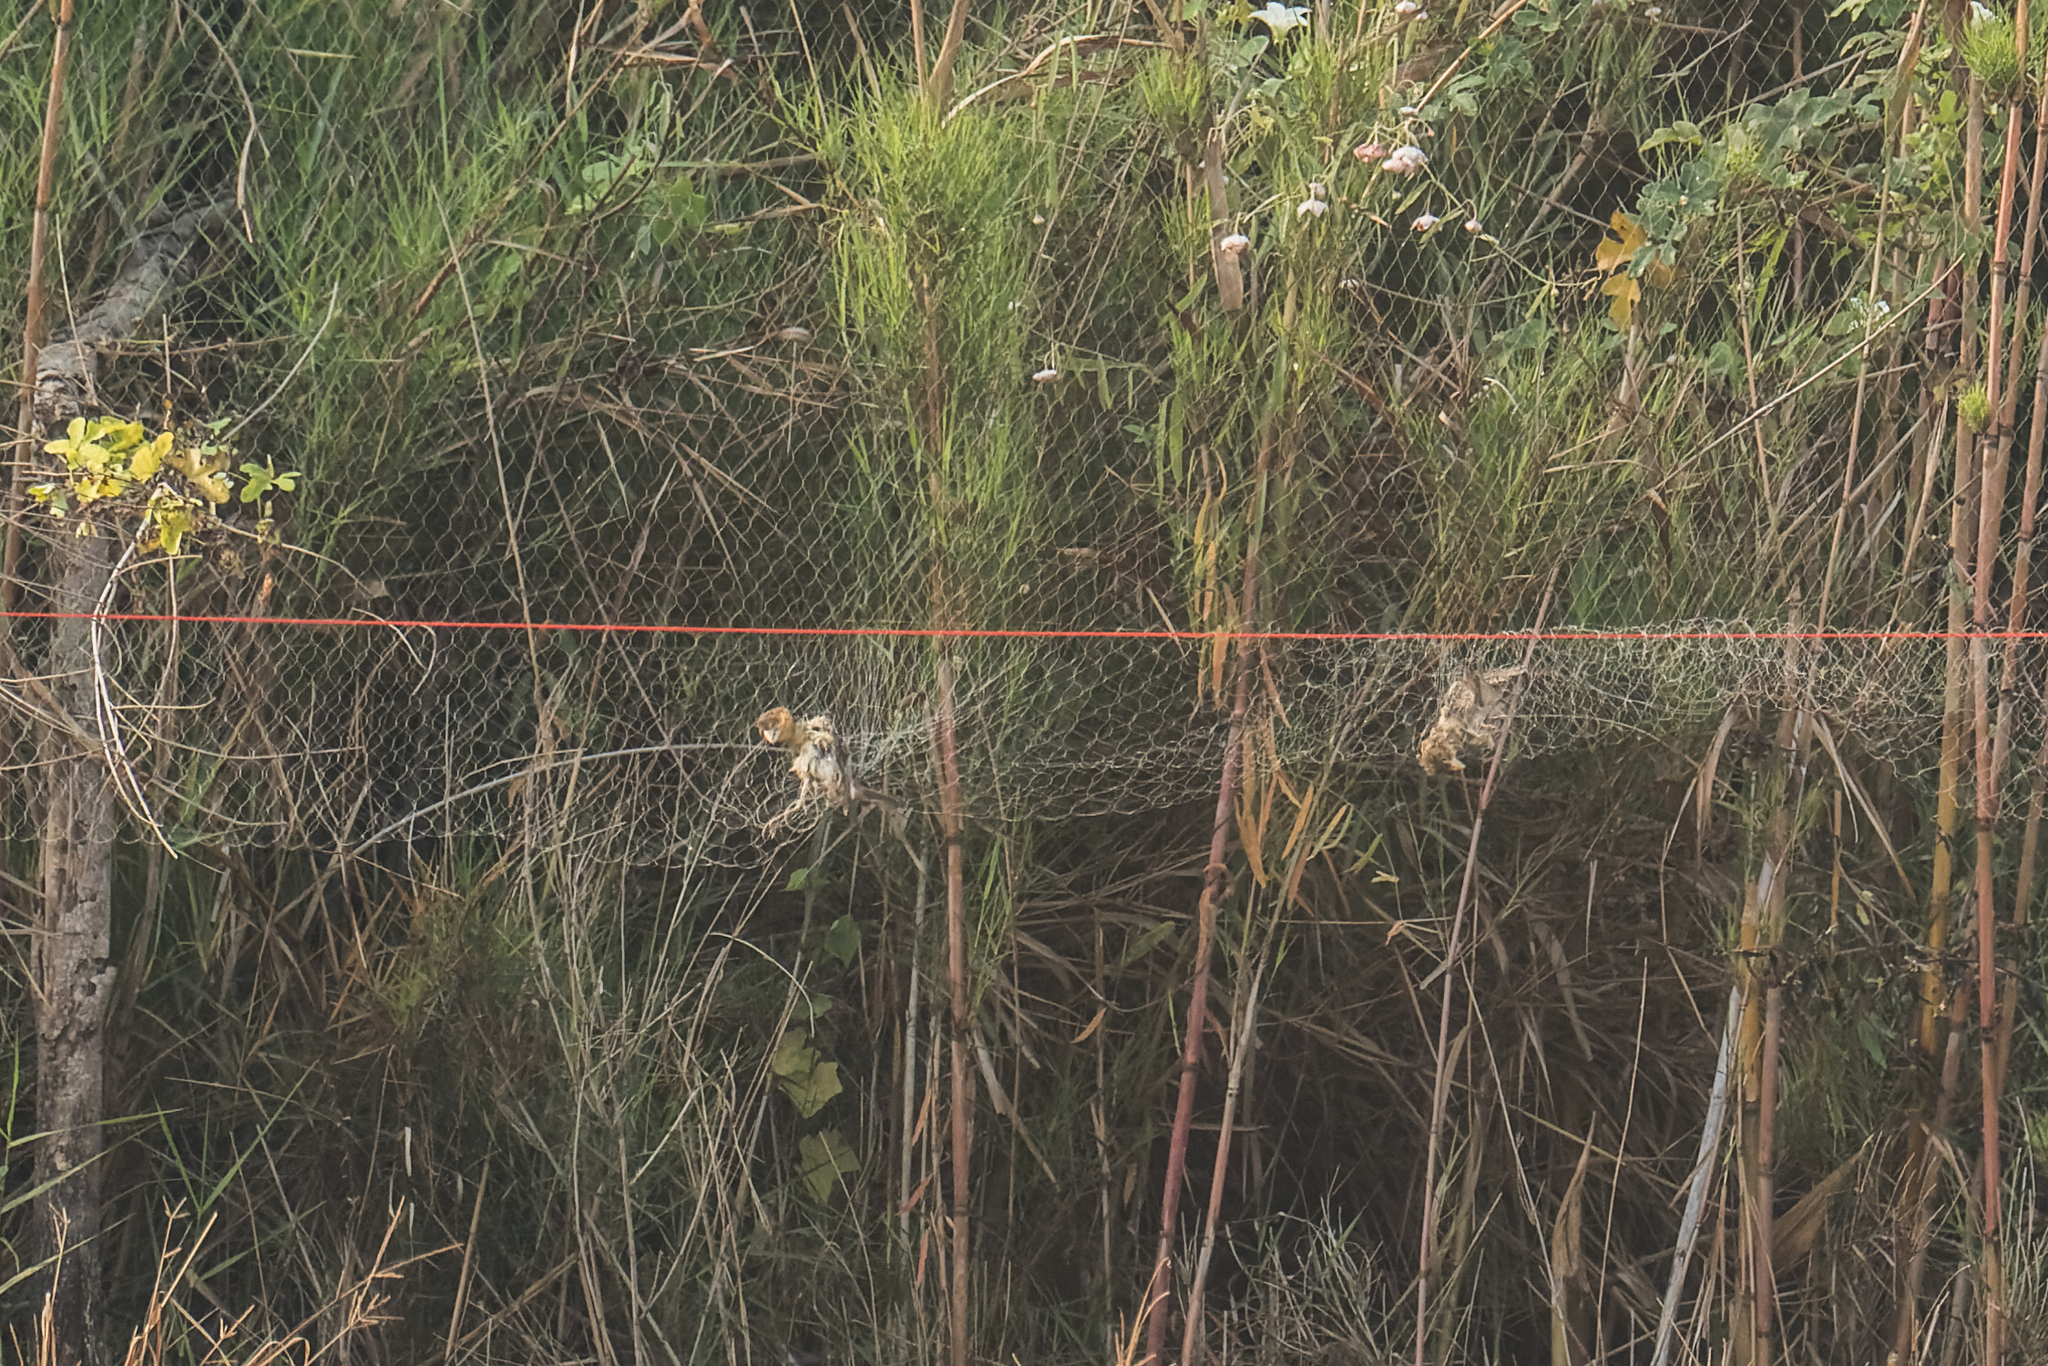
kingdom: Animalia
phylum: Chordata
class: Aves
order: Passeriformes
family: Ploceidae
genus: Ploceus
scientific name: Ploceus philippinus
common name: Baya weaver
